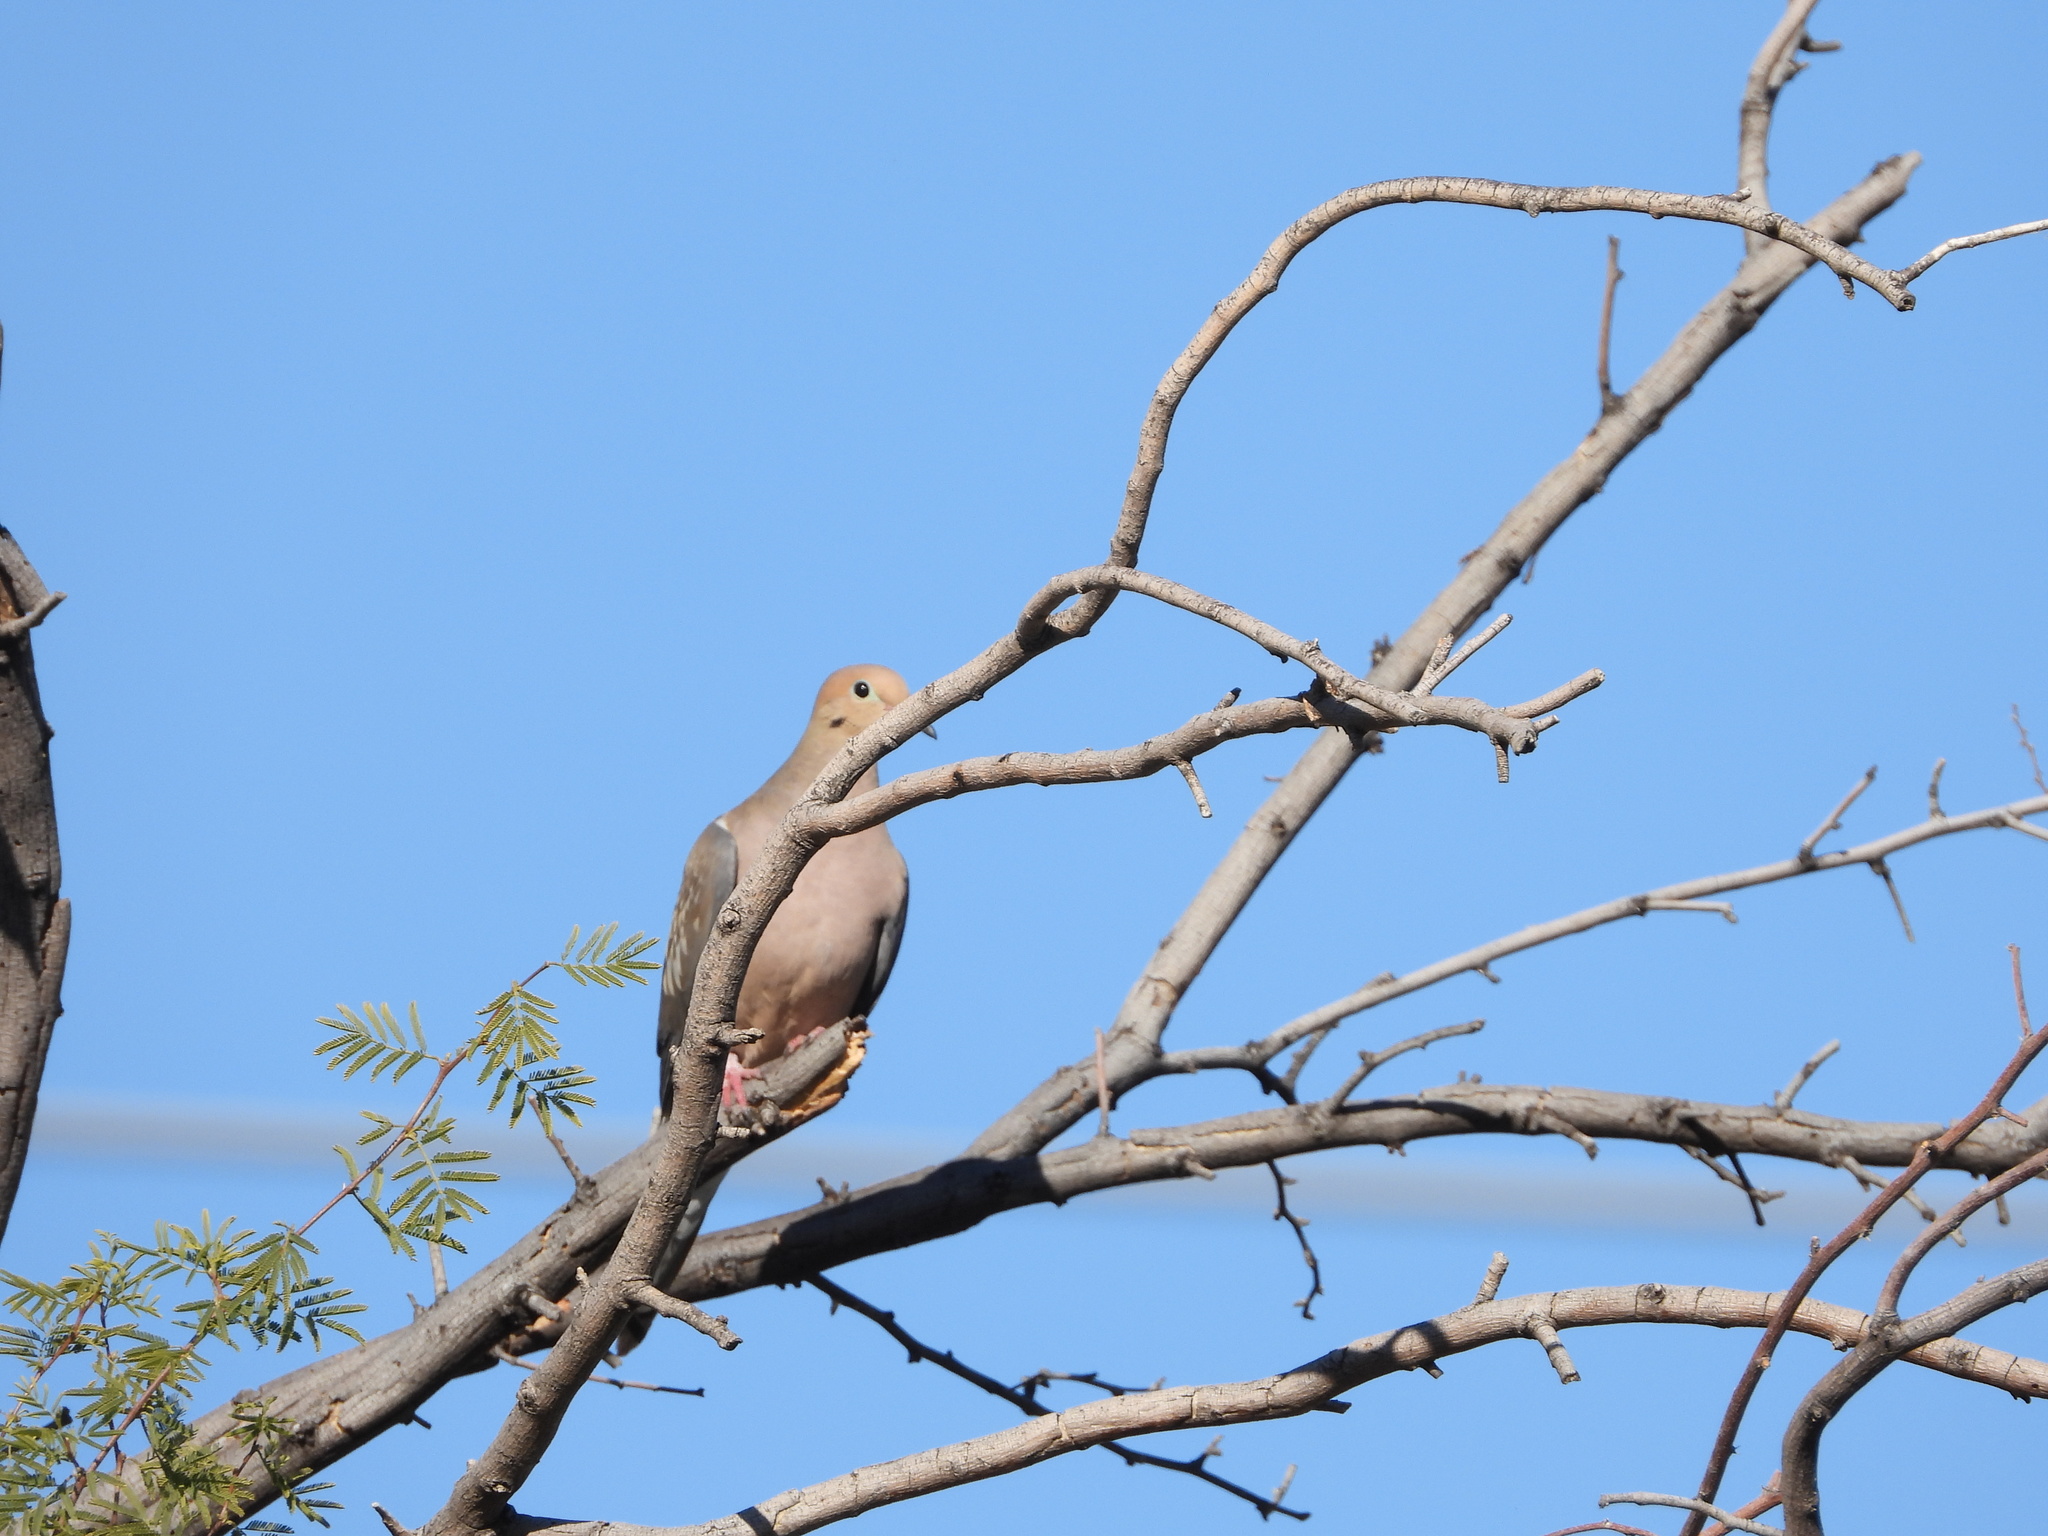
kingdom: Animalia
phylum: Chordata
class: Aves
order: Columbiformes
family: Columbidae
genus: Zenaida
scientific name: Zenaida macroura
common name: Mourning dove
